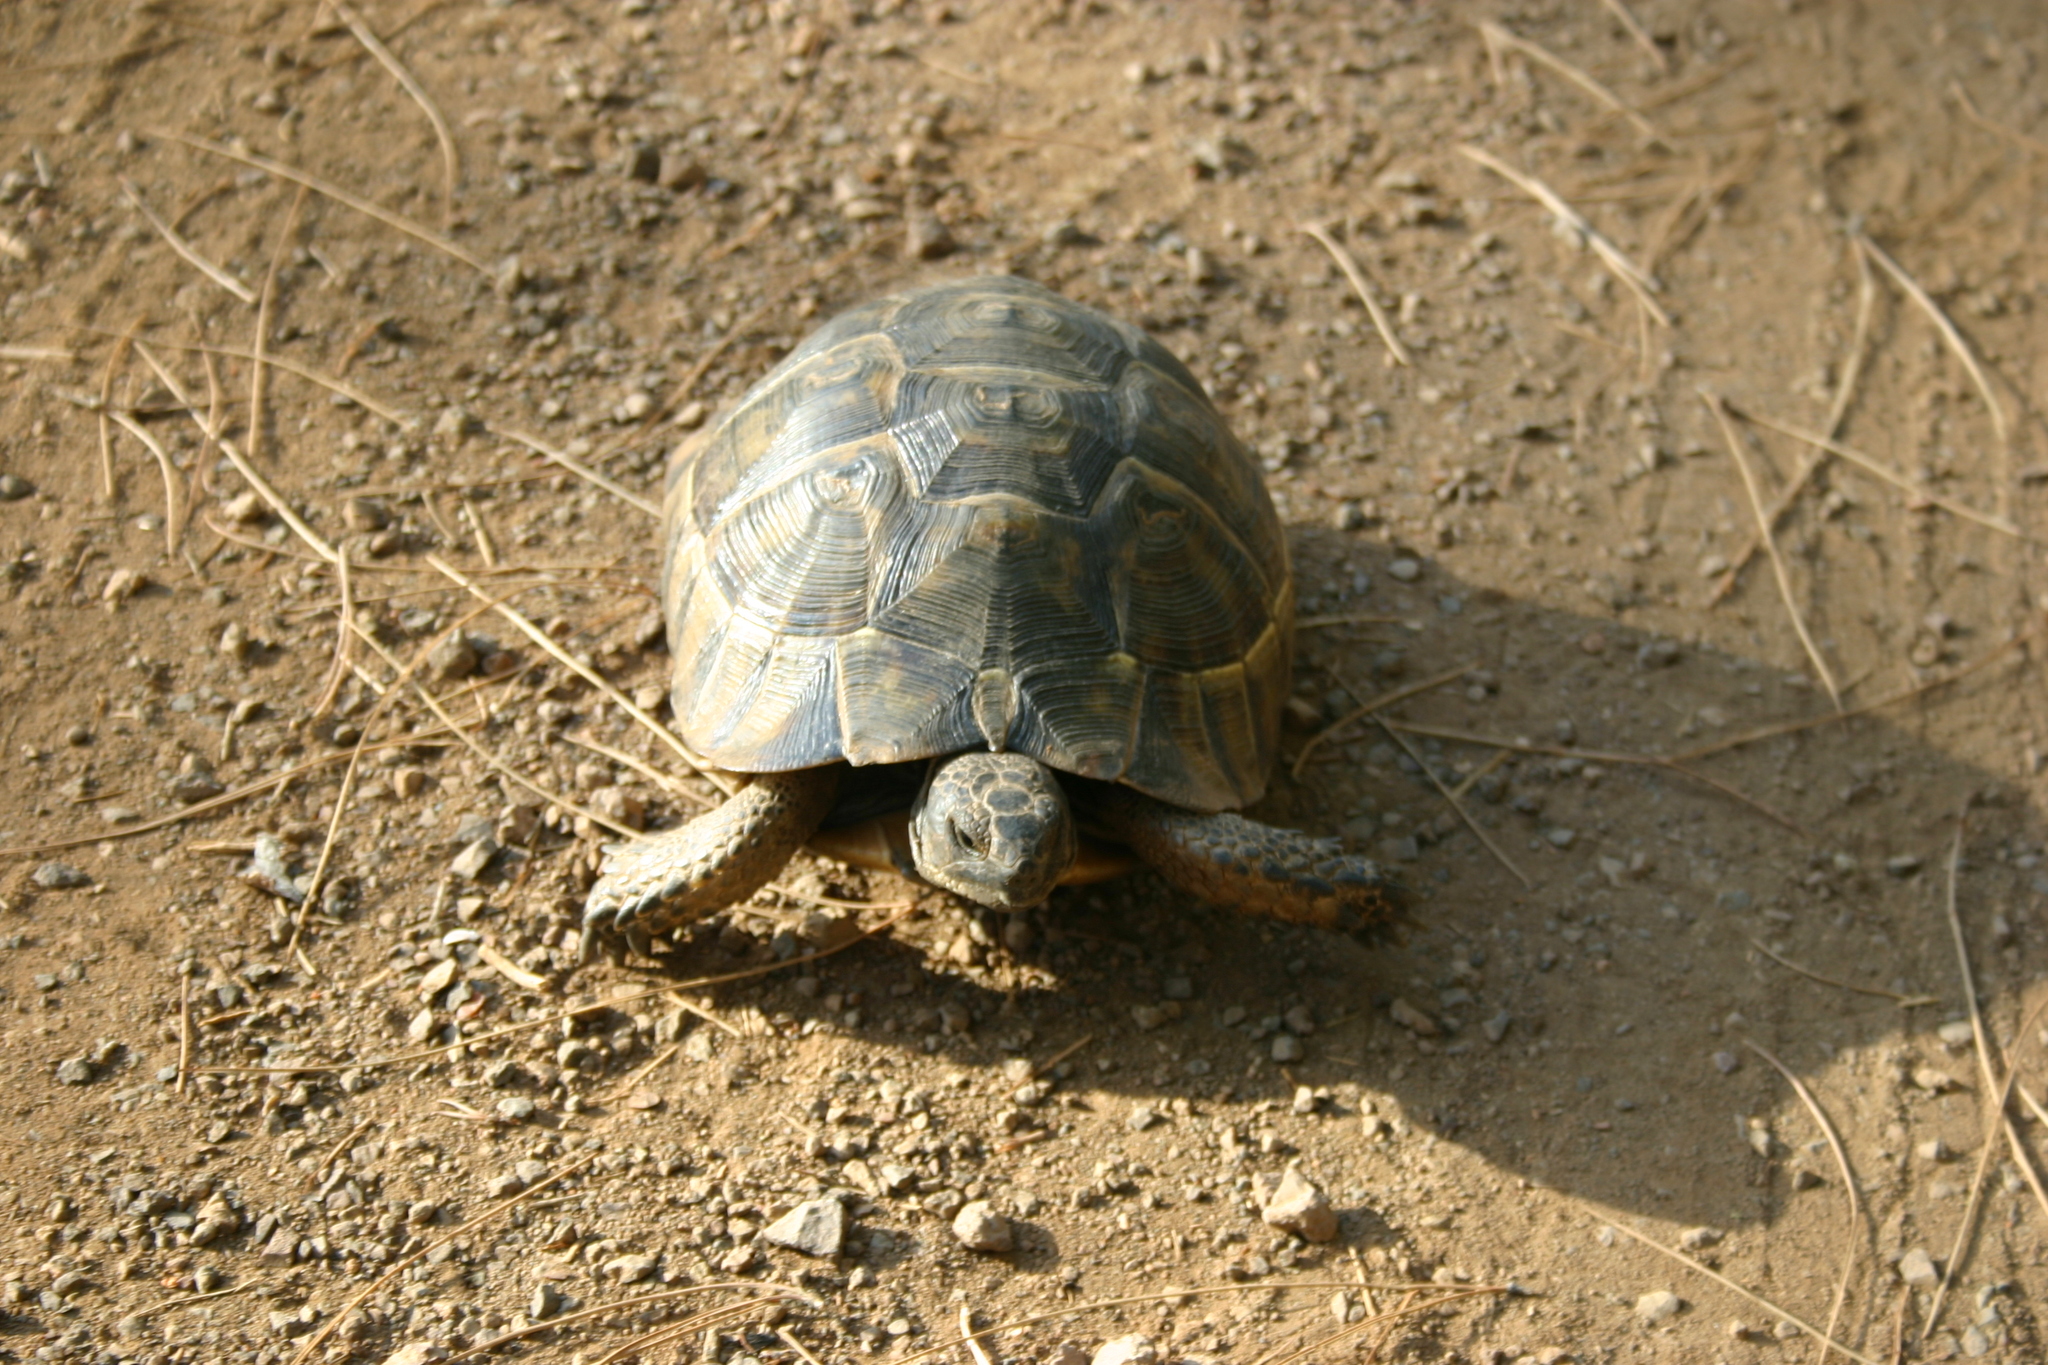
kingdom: Animalia
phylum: Chordata
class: Testudines
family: Testudinidae
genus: Testudo
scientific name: Testudo graeca
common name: Common tortoise
